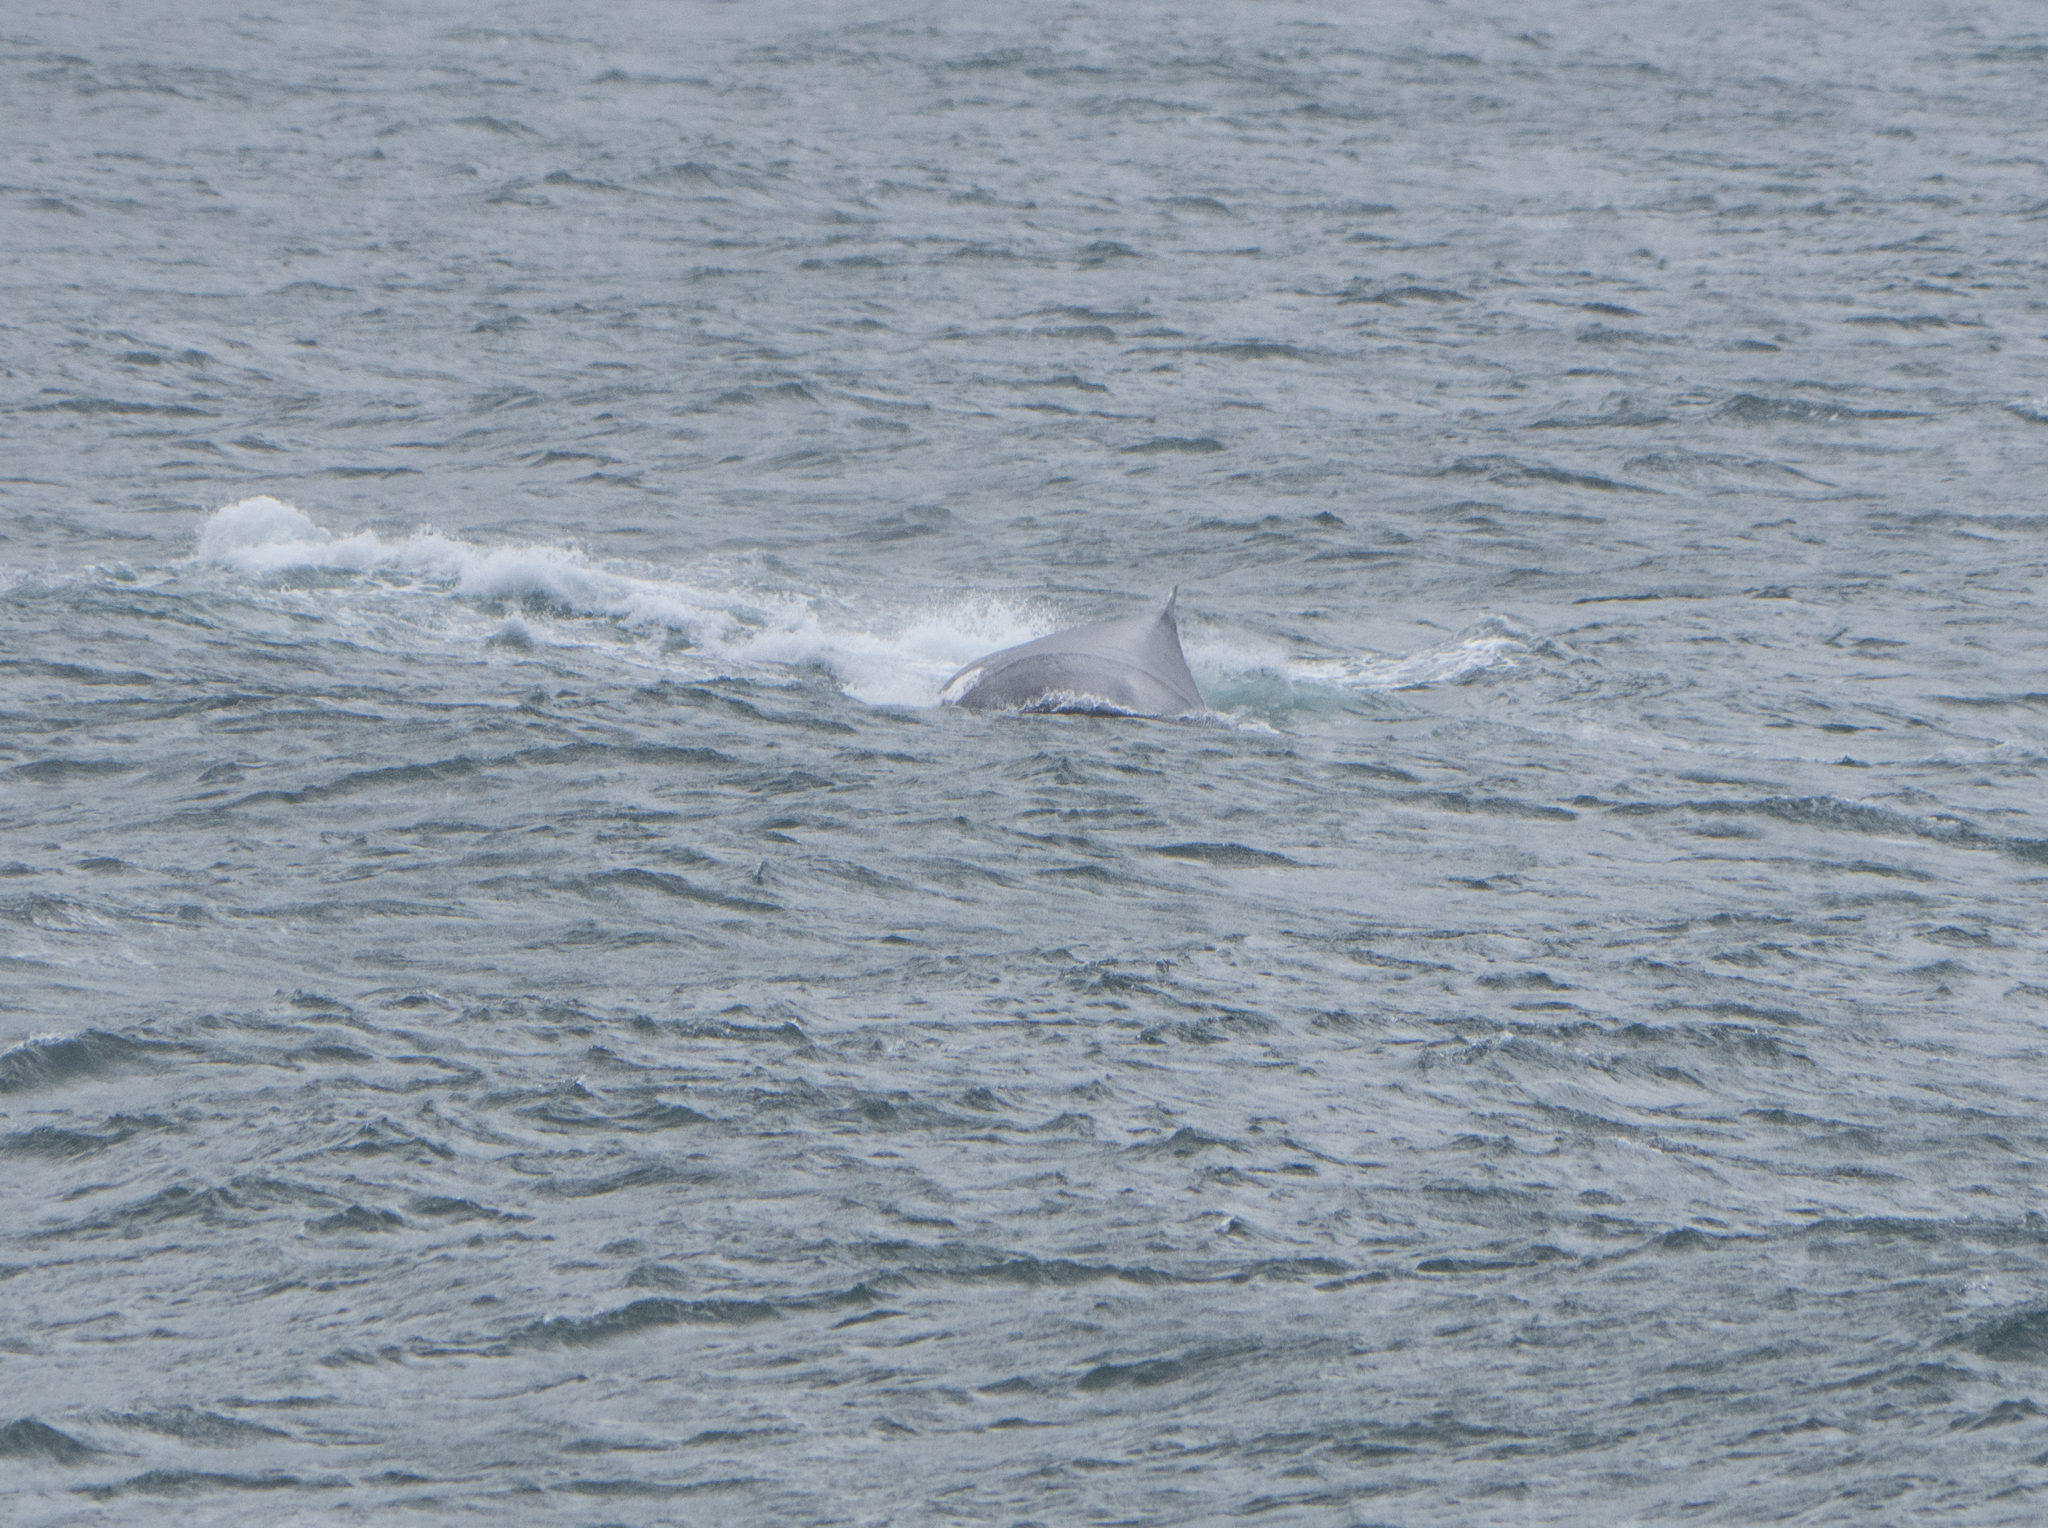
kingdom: Animalia
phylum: Chordata
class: Mammalia
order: Cetacea
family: Balaenopteridae
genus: Megaptera
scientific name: Megaptera novaeangliae
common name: Humpback whale
